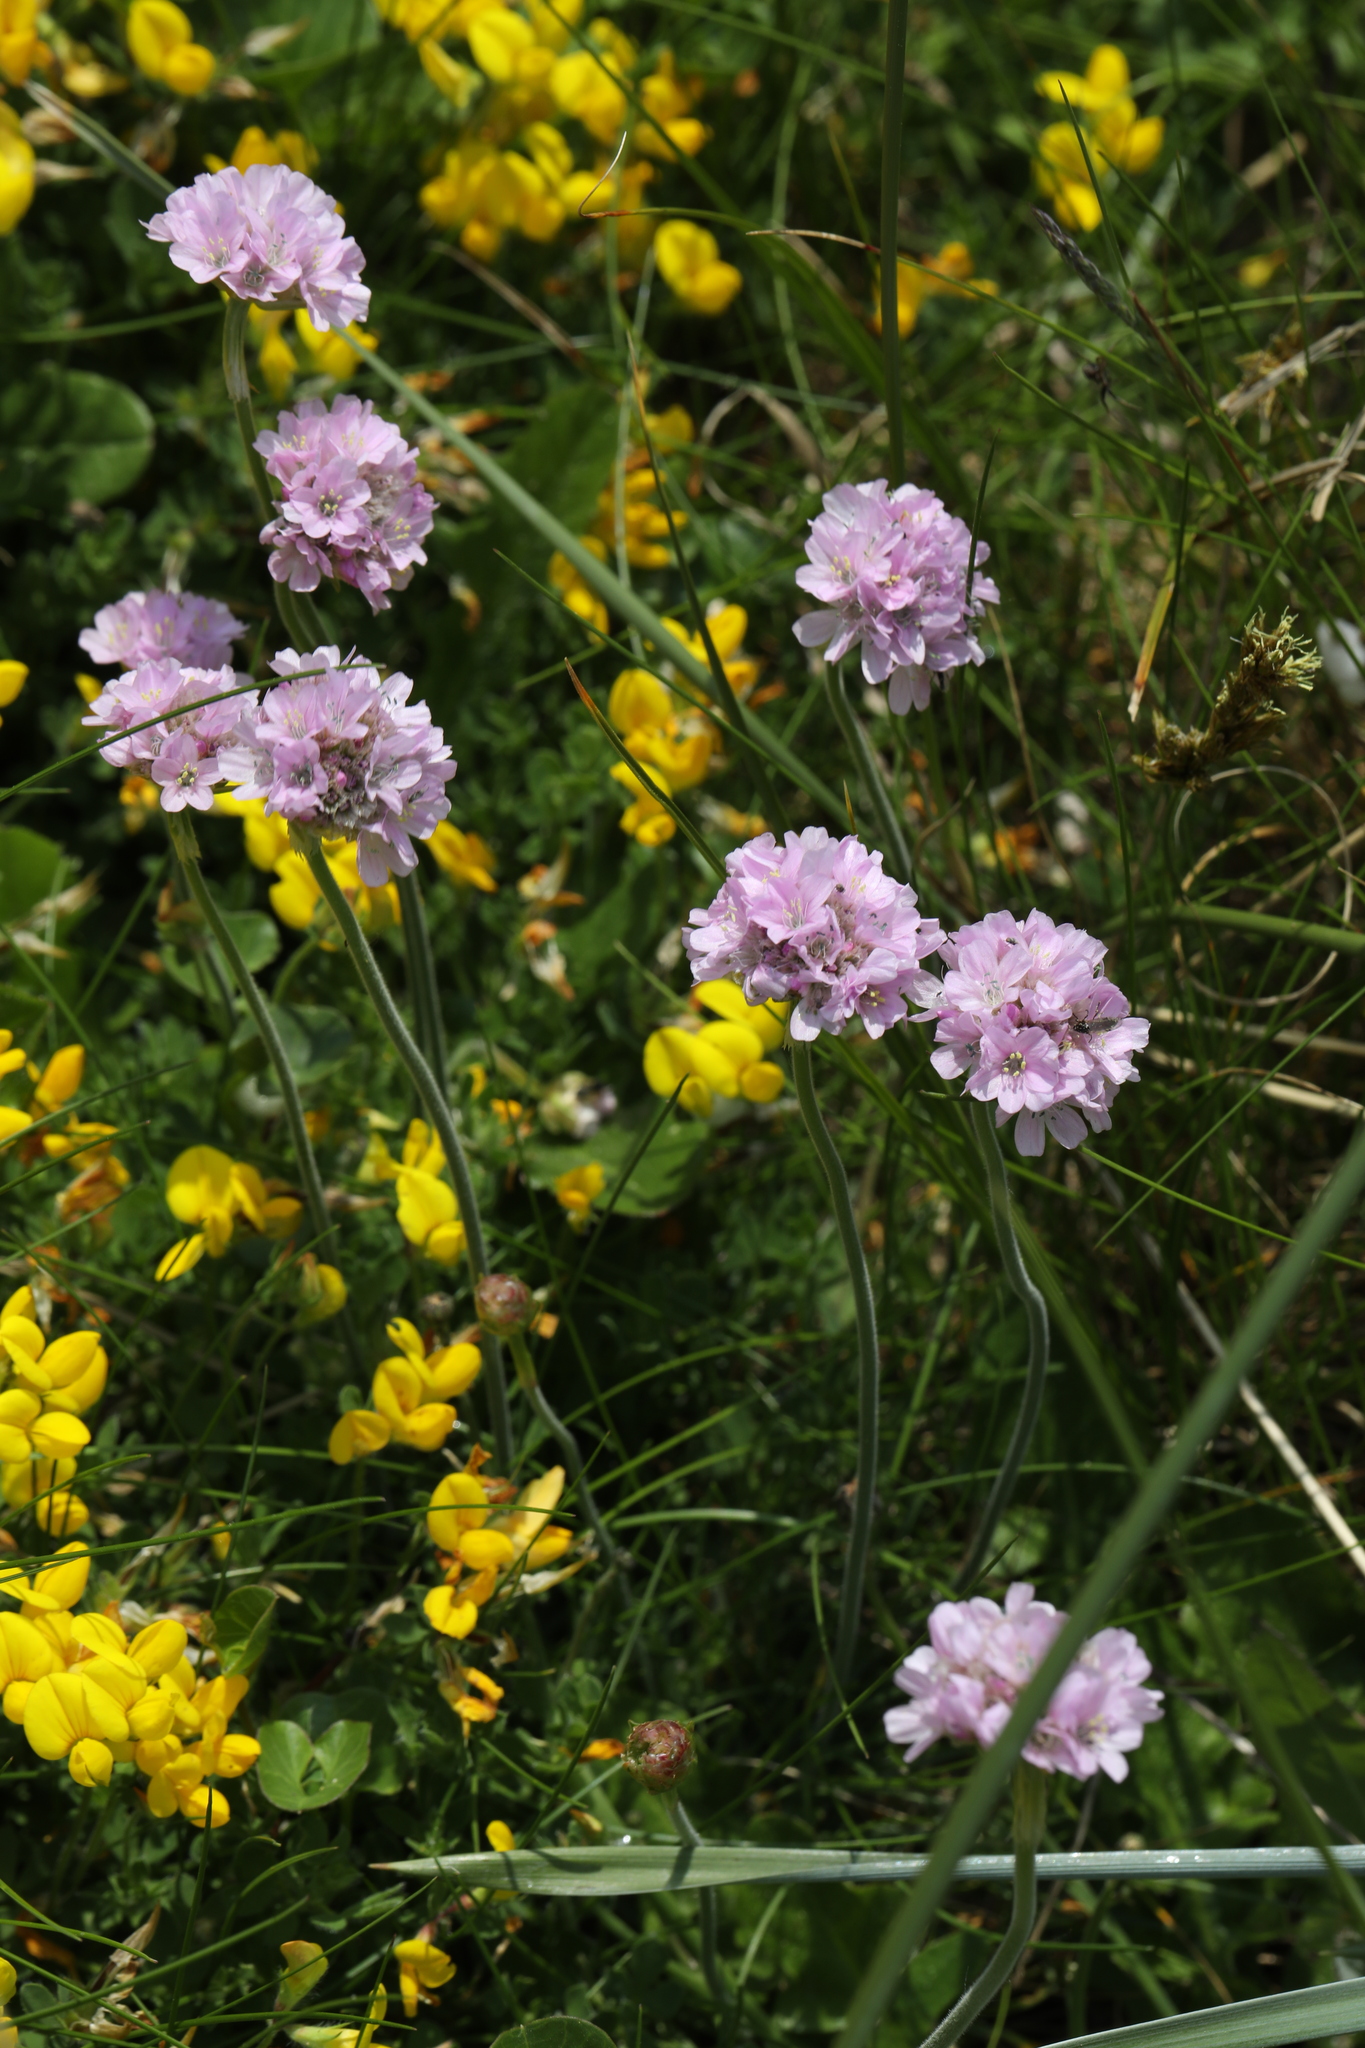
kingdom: Plantae
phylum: Tracheophyta
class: Magnoliopsida
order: Caryophyllales
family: Plumbaginaceae
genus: Armeria
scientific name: Armeria maritima
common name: Thrift
